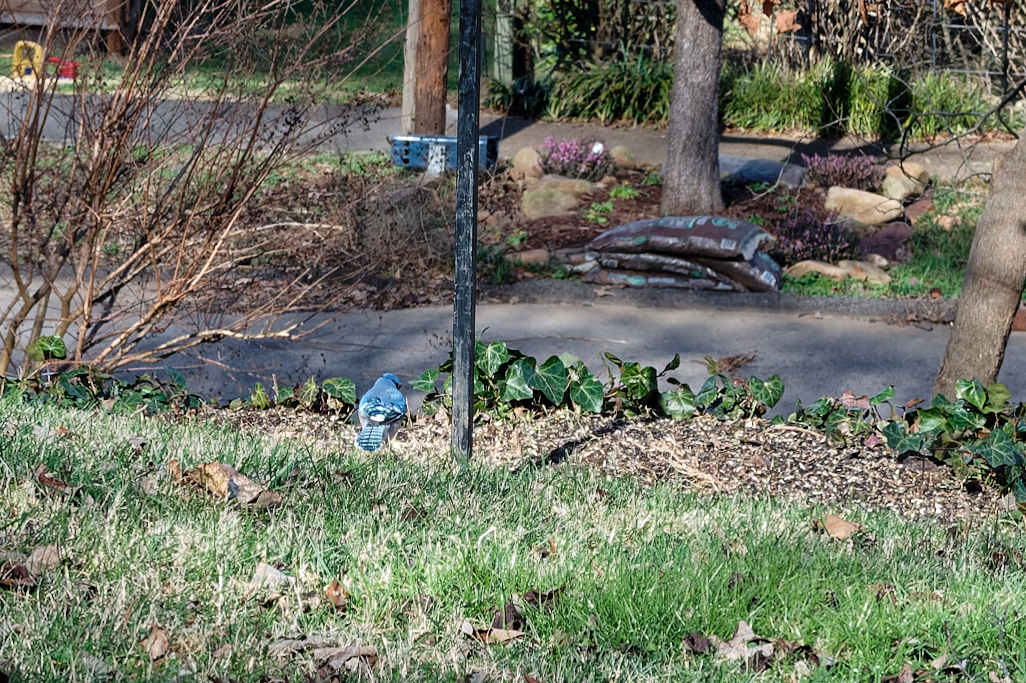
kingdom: Animalia
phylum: Chordata
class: Aves
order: Passeriformes
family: Corvidae
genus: Cyanocitta
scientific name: Cyanocitta cristata
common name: Blue jay
